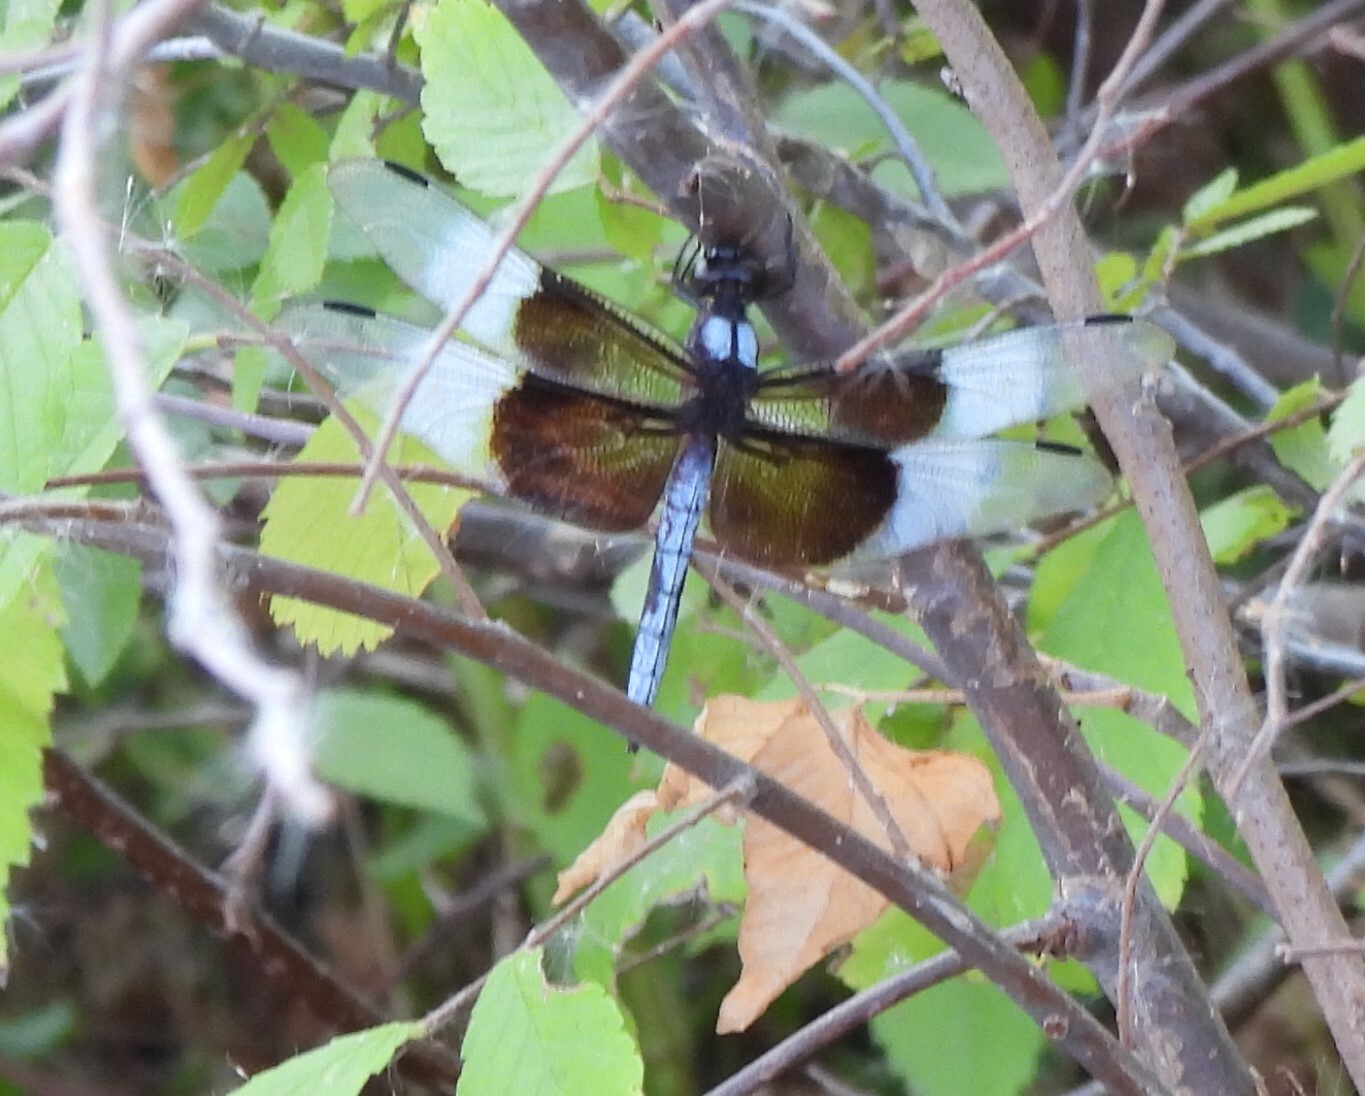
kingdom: Animalia
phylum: Arthropoda
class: Insecta
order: Odonata
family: Libellulidae
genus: Libellula
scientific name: Libellula luctuosa
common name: Widow skimmer
